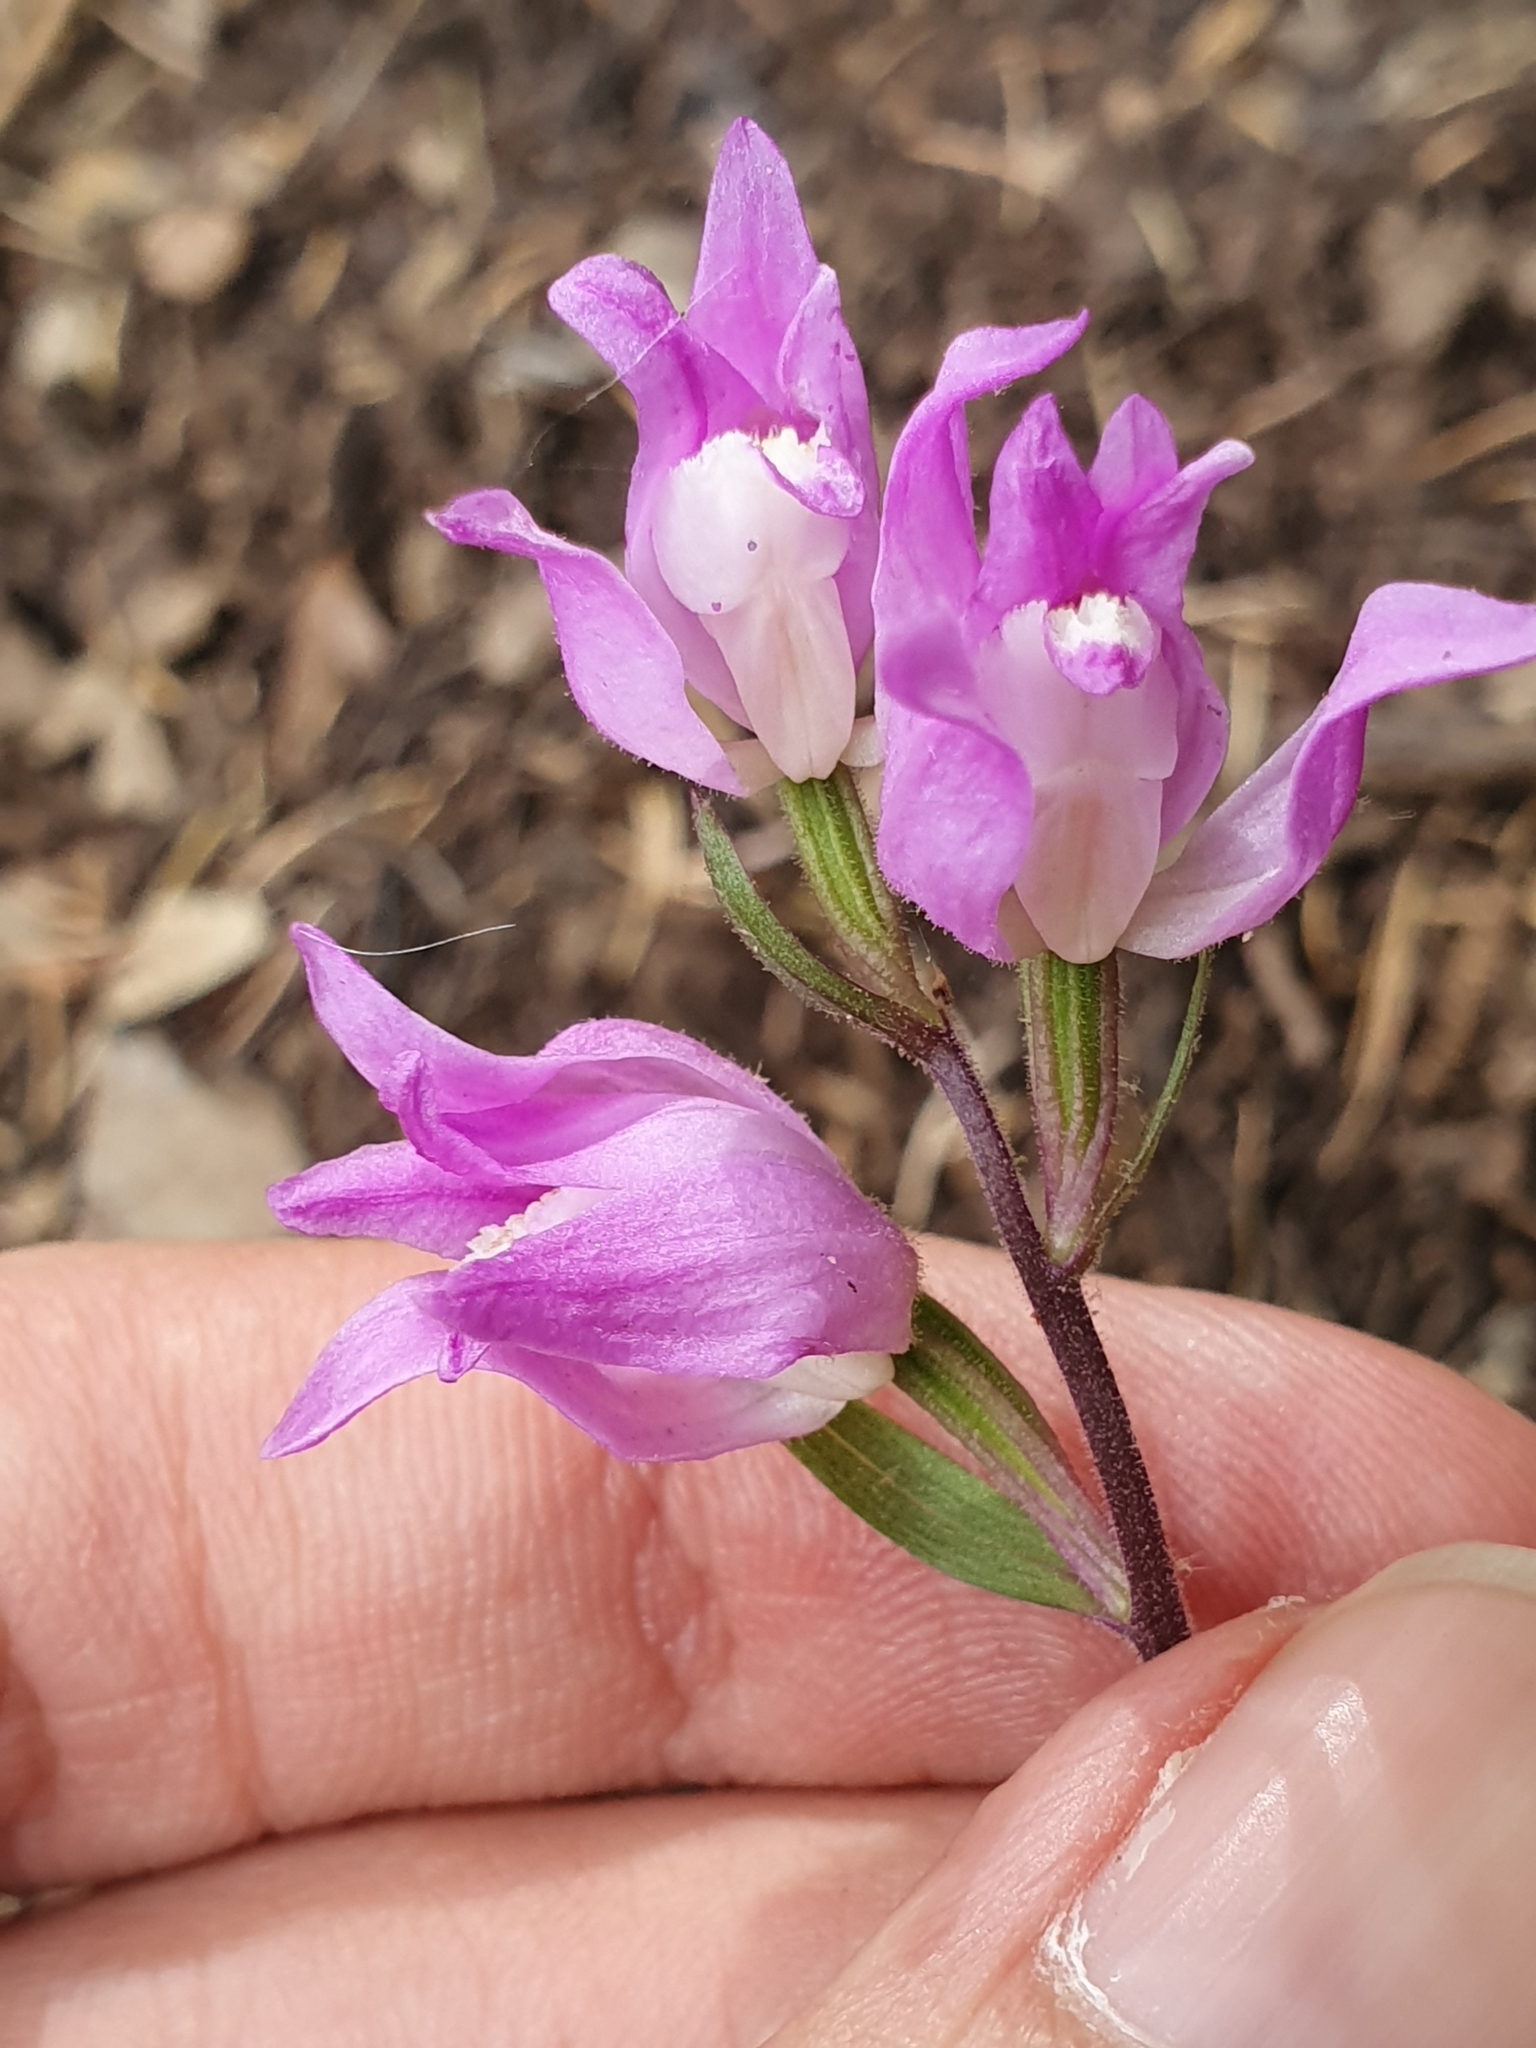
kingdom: Plantae
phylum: Tracheophyta
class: Liliopsida
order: Asparagales
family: Orchidaceae
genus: Cephalanthera
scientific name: Cephalanthera rubra
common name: Red helleborine
